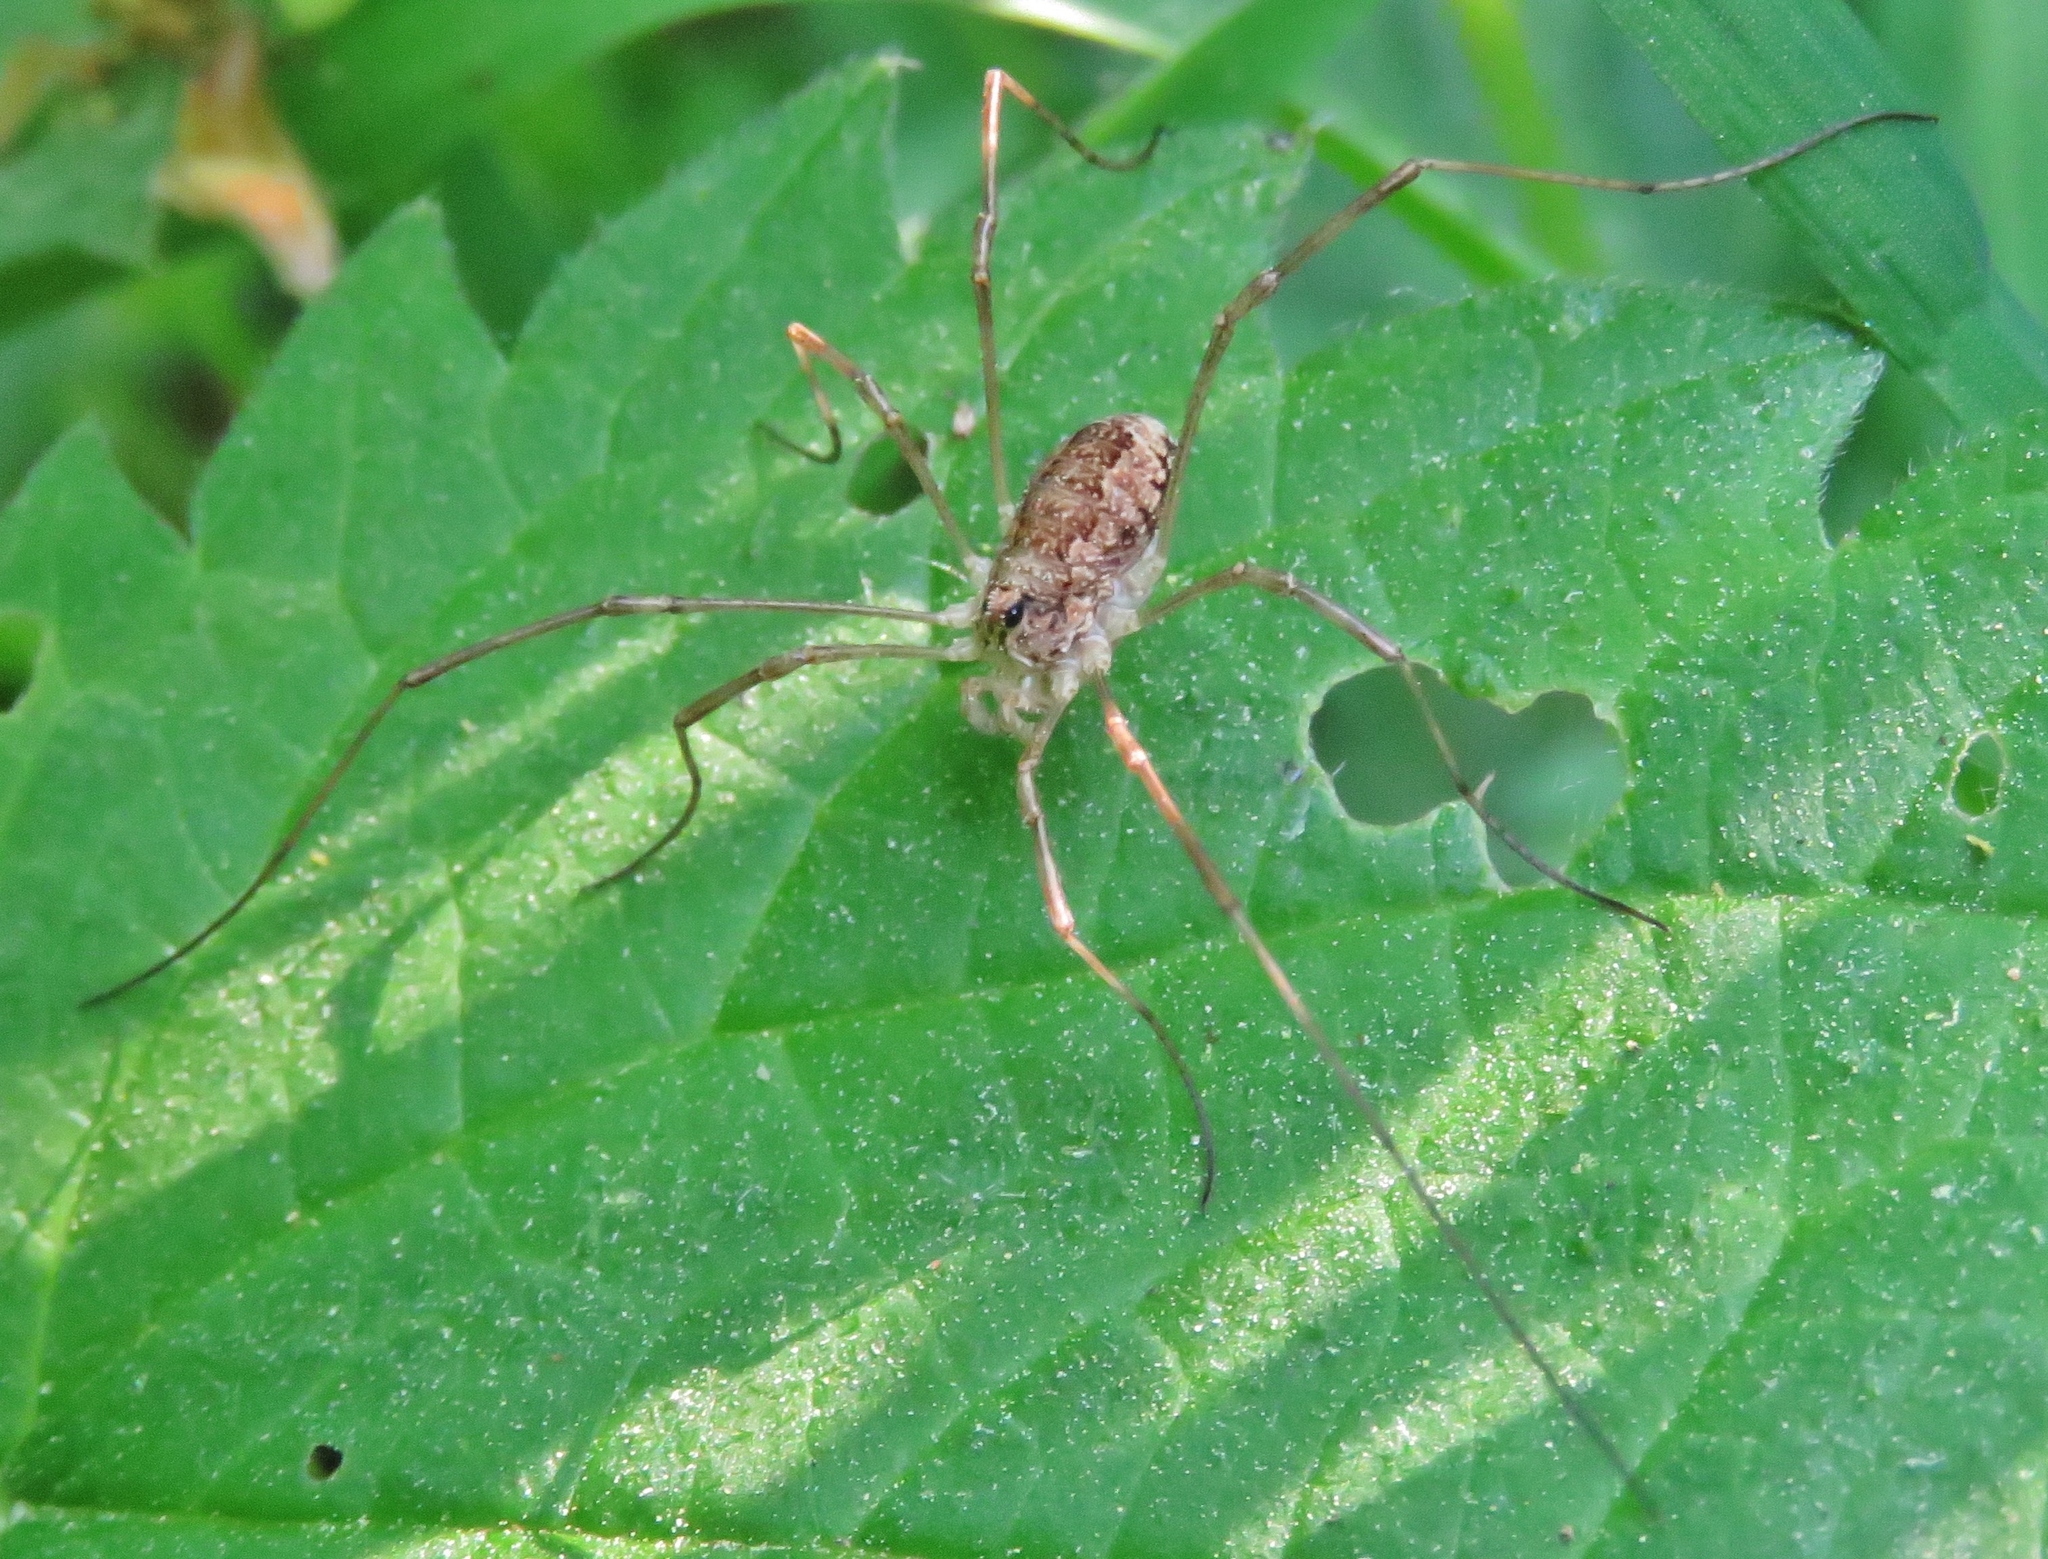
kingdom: Animalia
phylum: Arthropoda
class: Arachnida
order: Opiliones
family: Phalangiidae
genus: Rilaena
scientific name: Rilaena triangularis
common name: Spring harvestman
